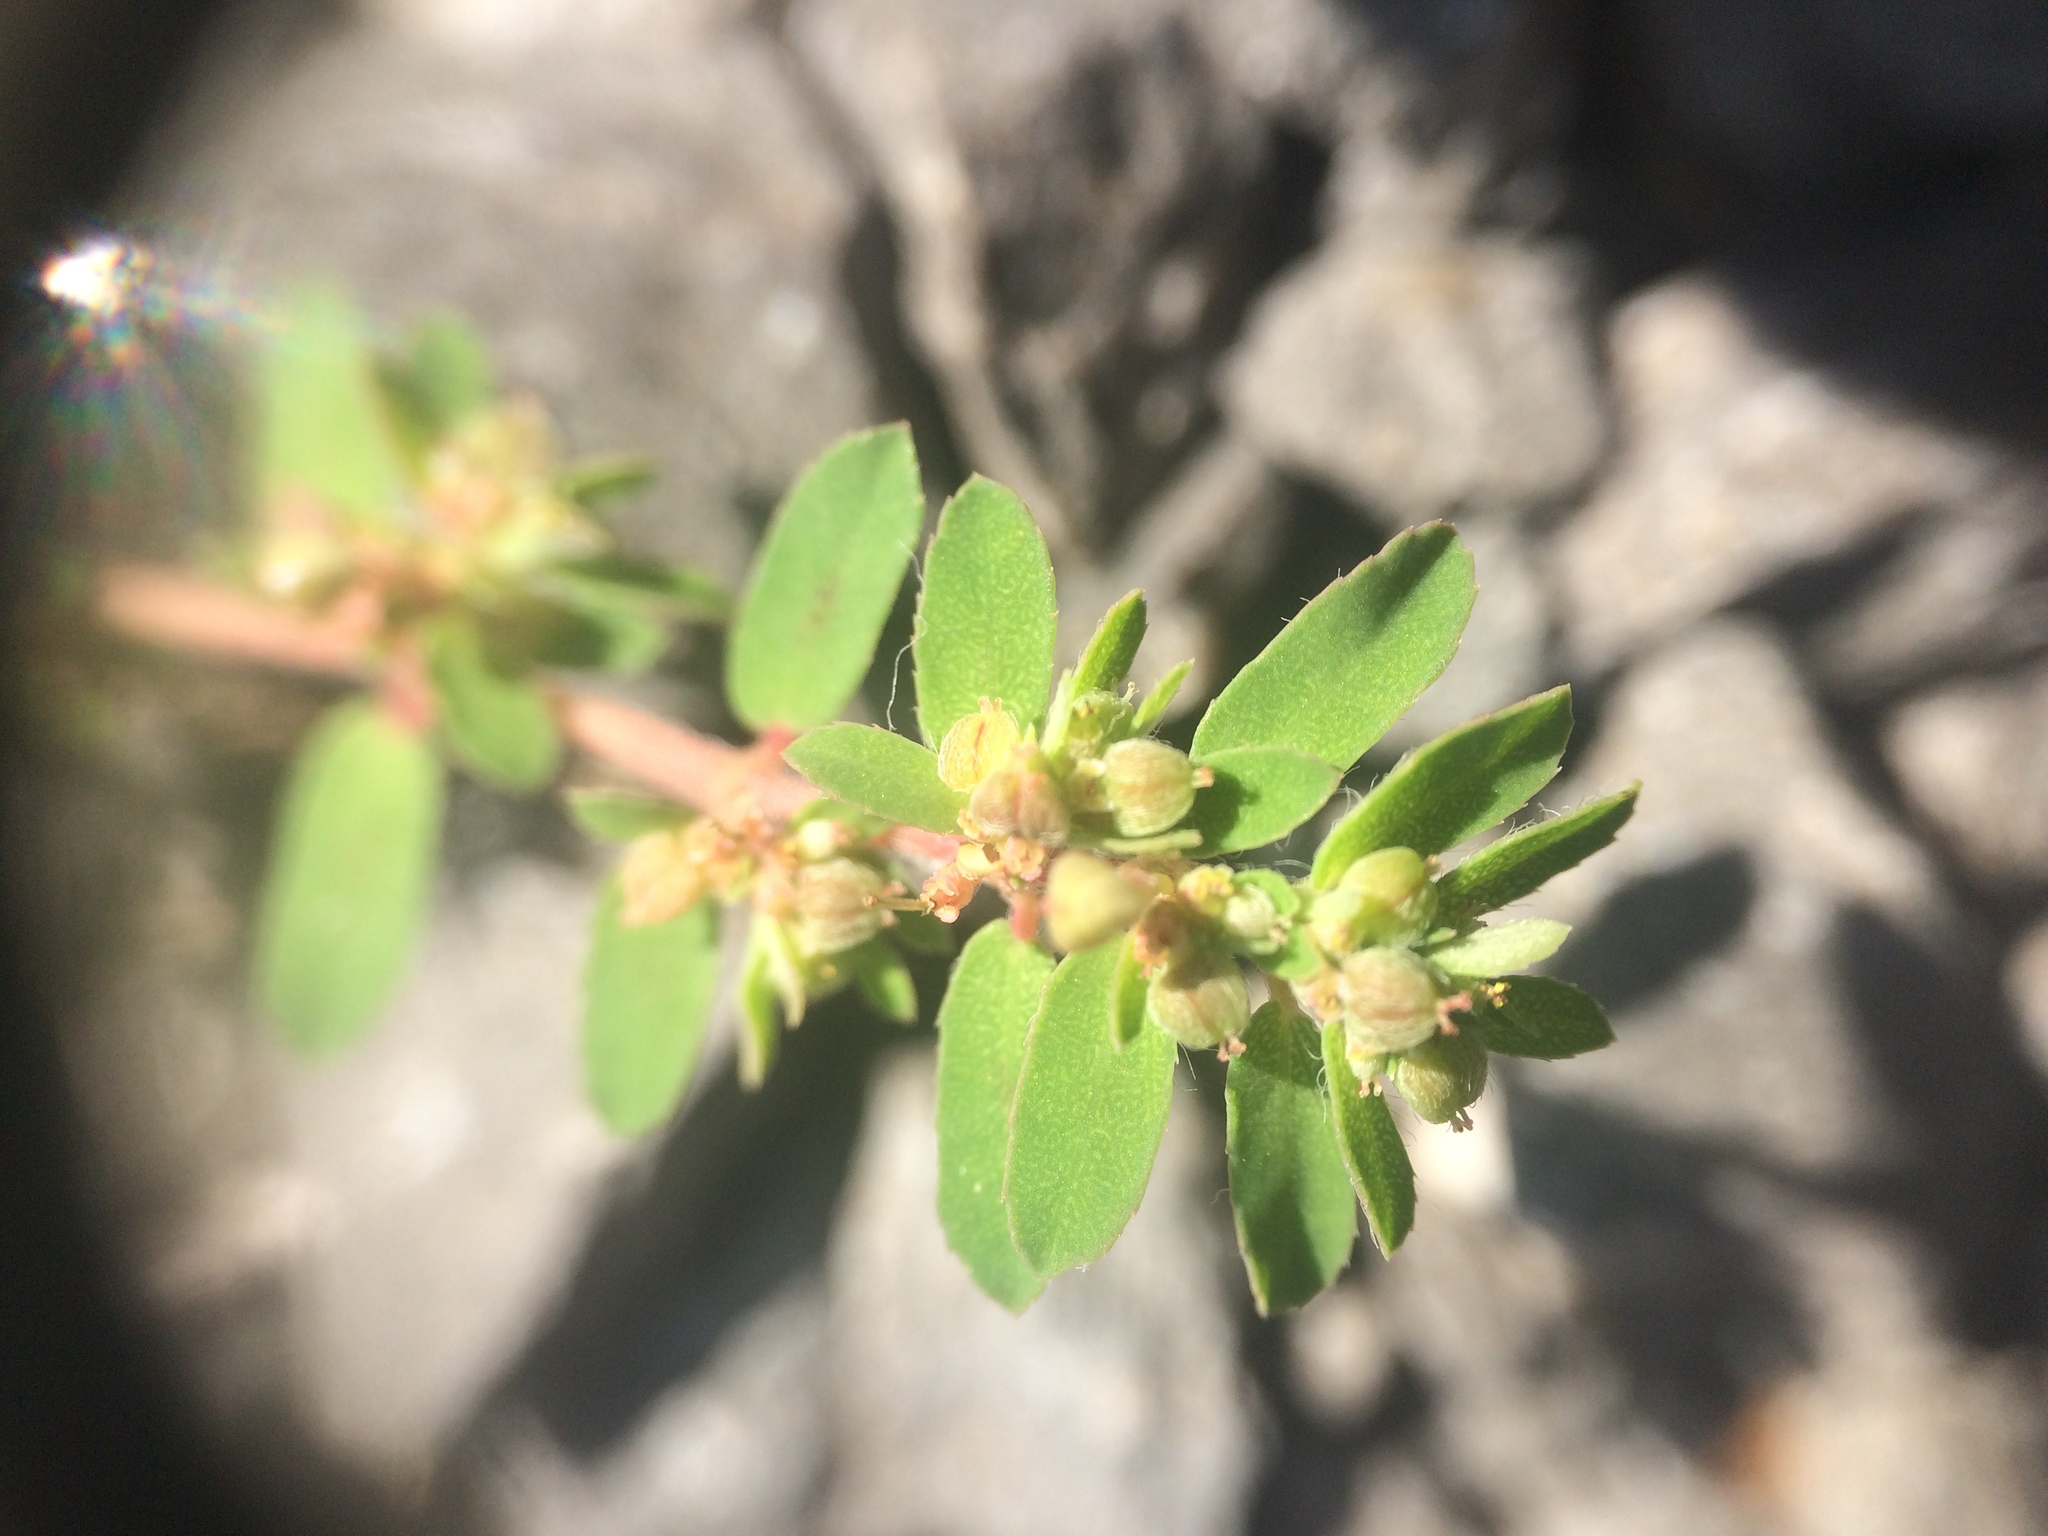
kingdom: Plantae
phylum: Tracheophyta
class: Magnoliopsida
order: Malpighiales
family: Euphorbiaceae
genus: Euphorbia
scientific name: Euphorbia maculata
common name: Spotted spurge
